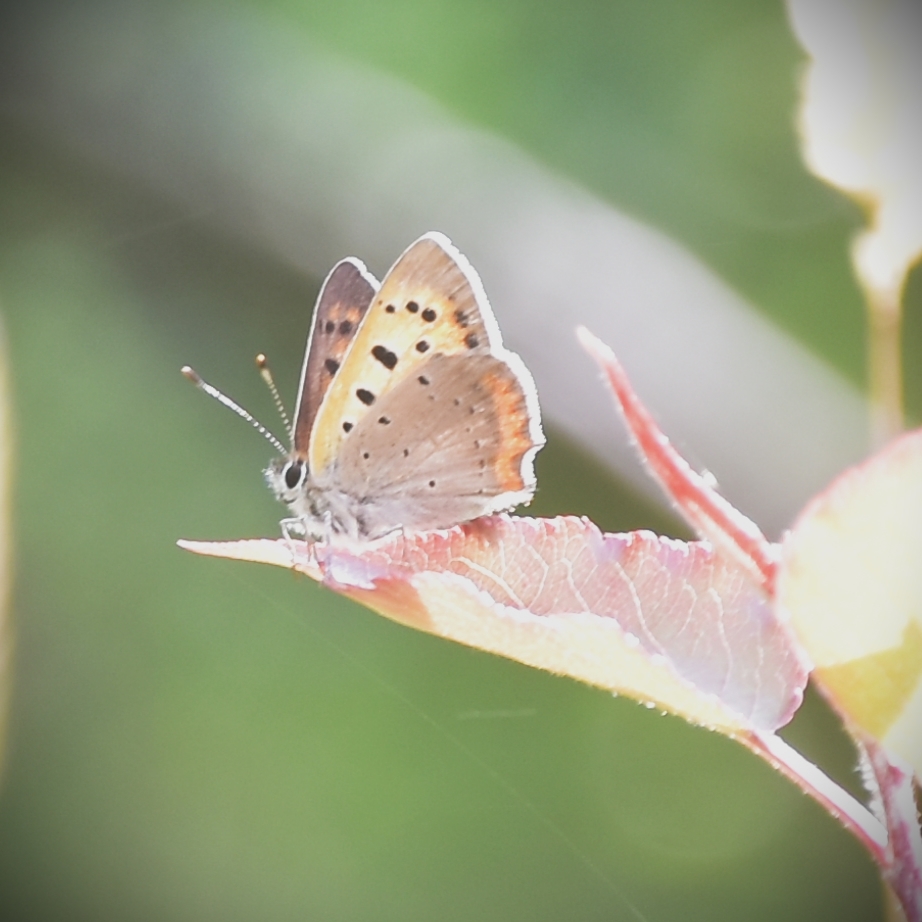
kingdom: Animalia
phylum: Arthropoda
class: Insecta
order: Lepidoptera
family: Lycaenidae
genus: Lycaena
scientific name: Lycaena phlaeas
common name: Small copper
